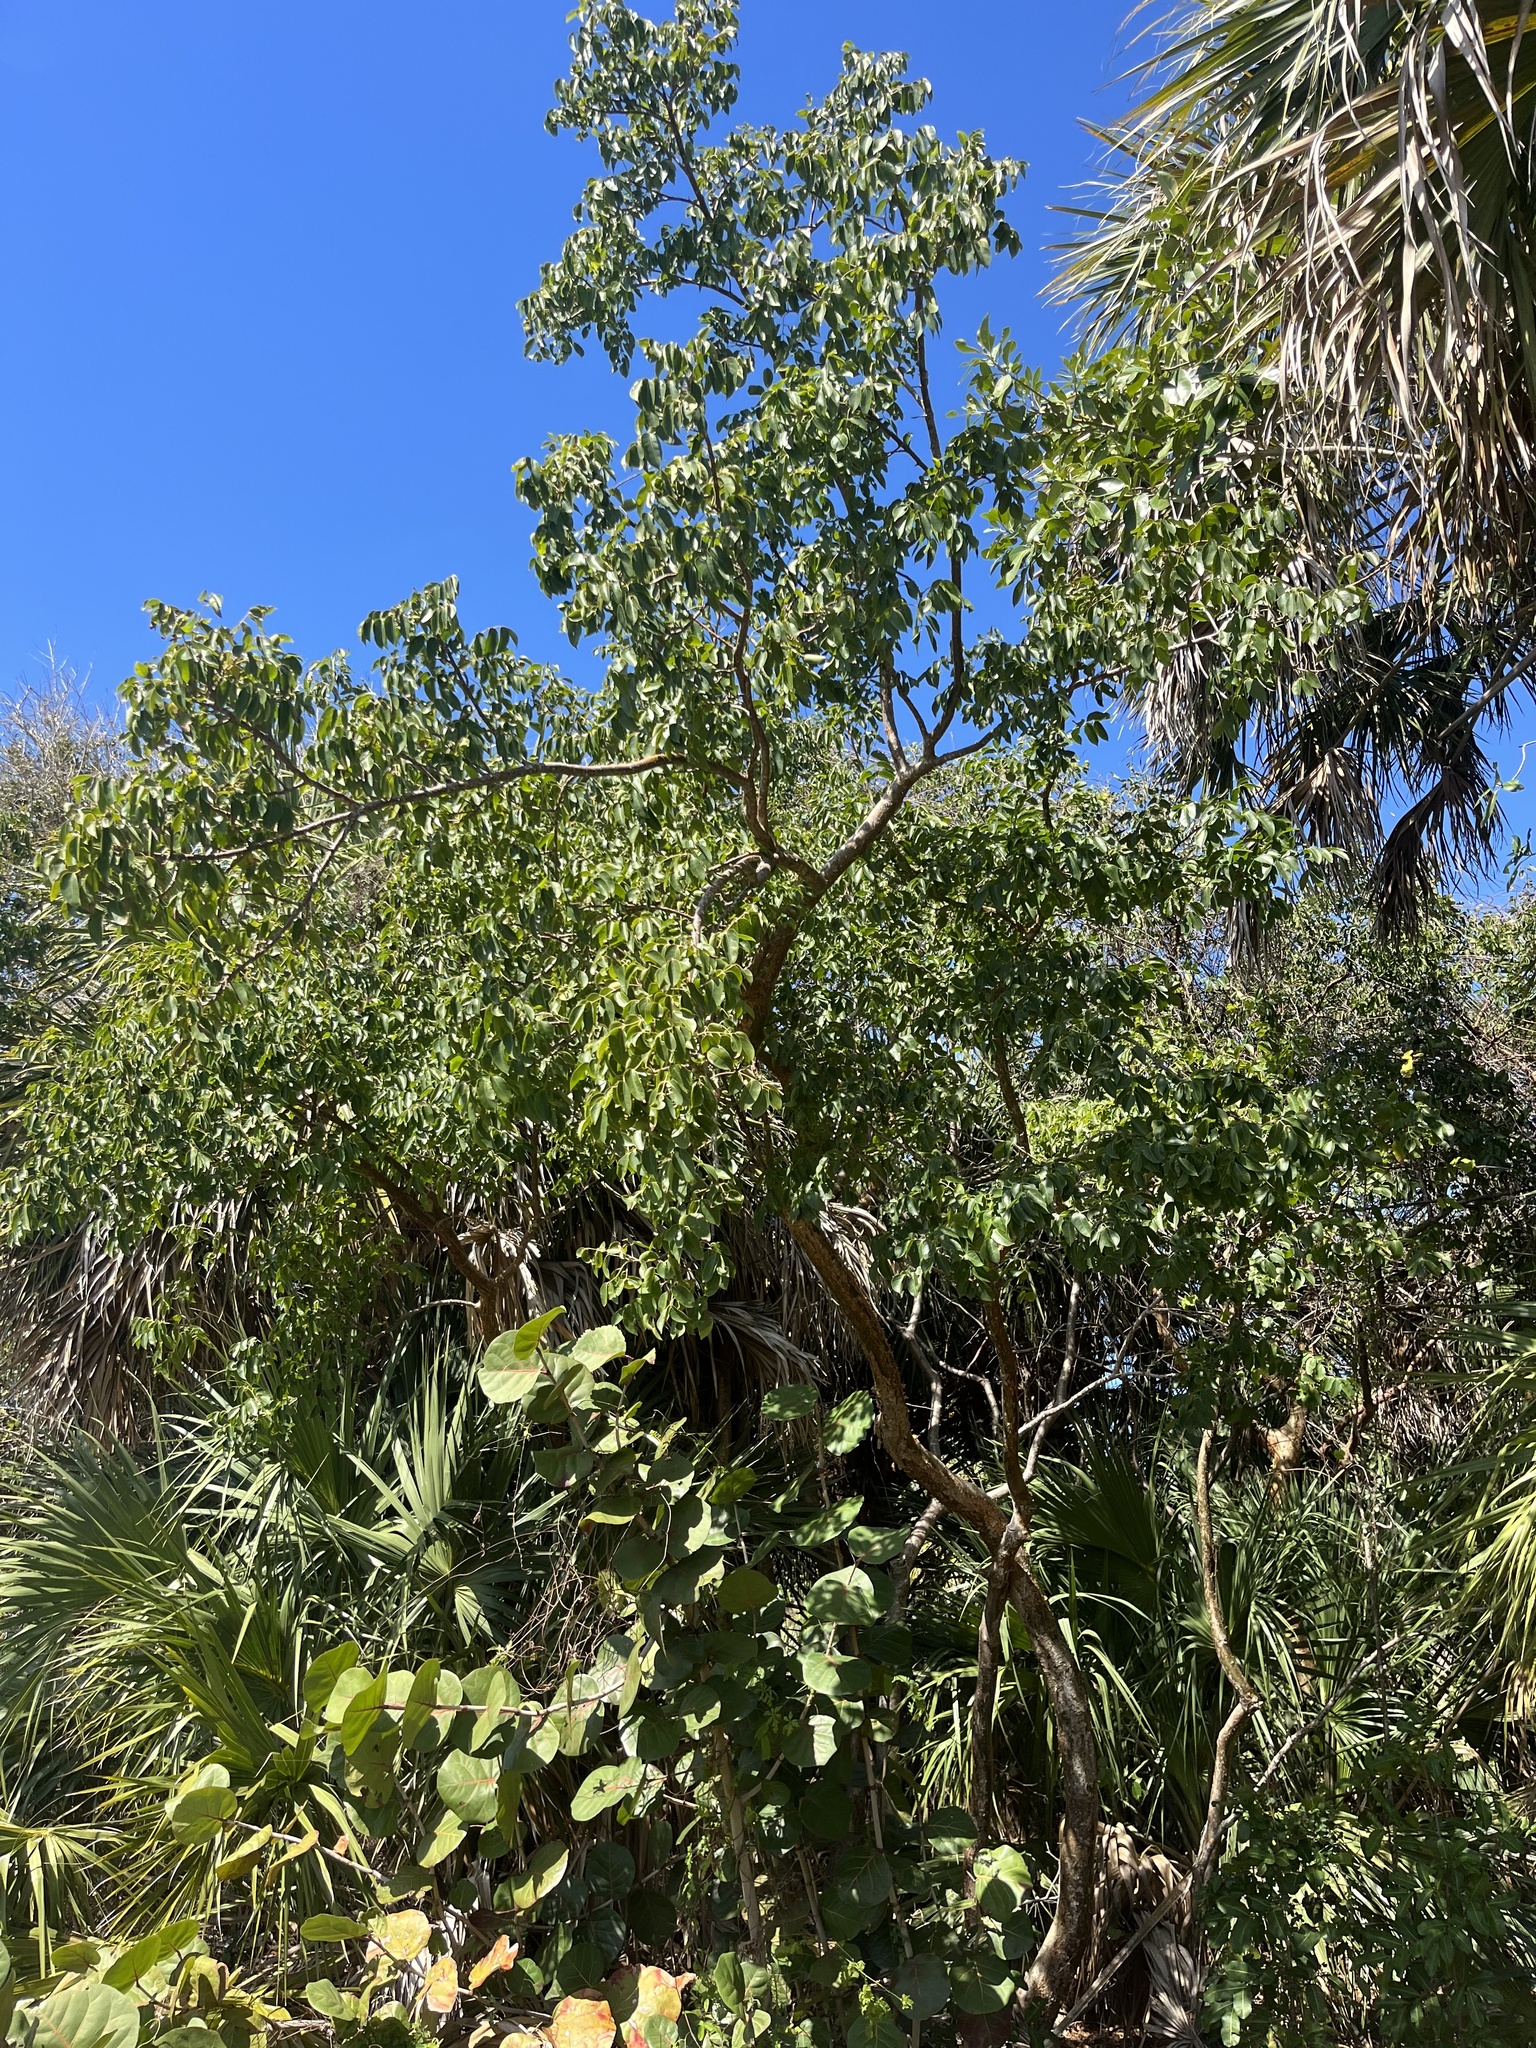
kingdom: Plantae
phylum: Tracheophyta
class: Magnoliopsida
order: Sapindales
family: Burseraceae
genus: Bursera
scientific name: Bursera simaruba
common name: Turpentine tree
